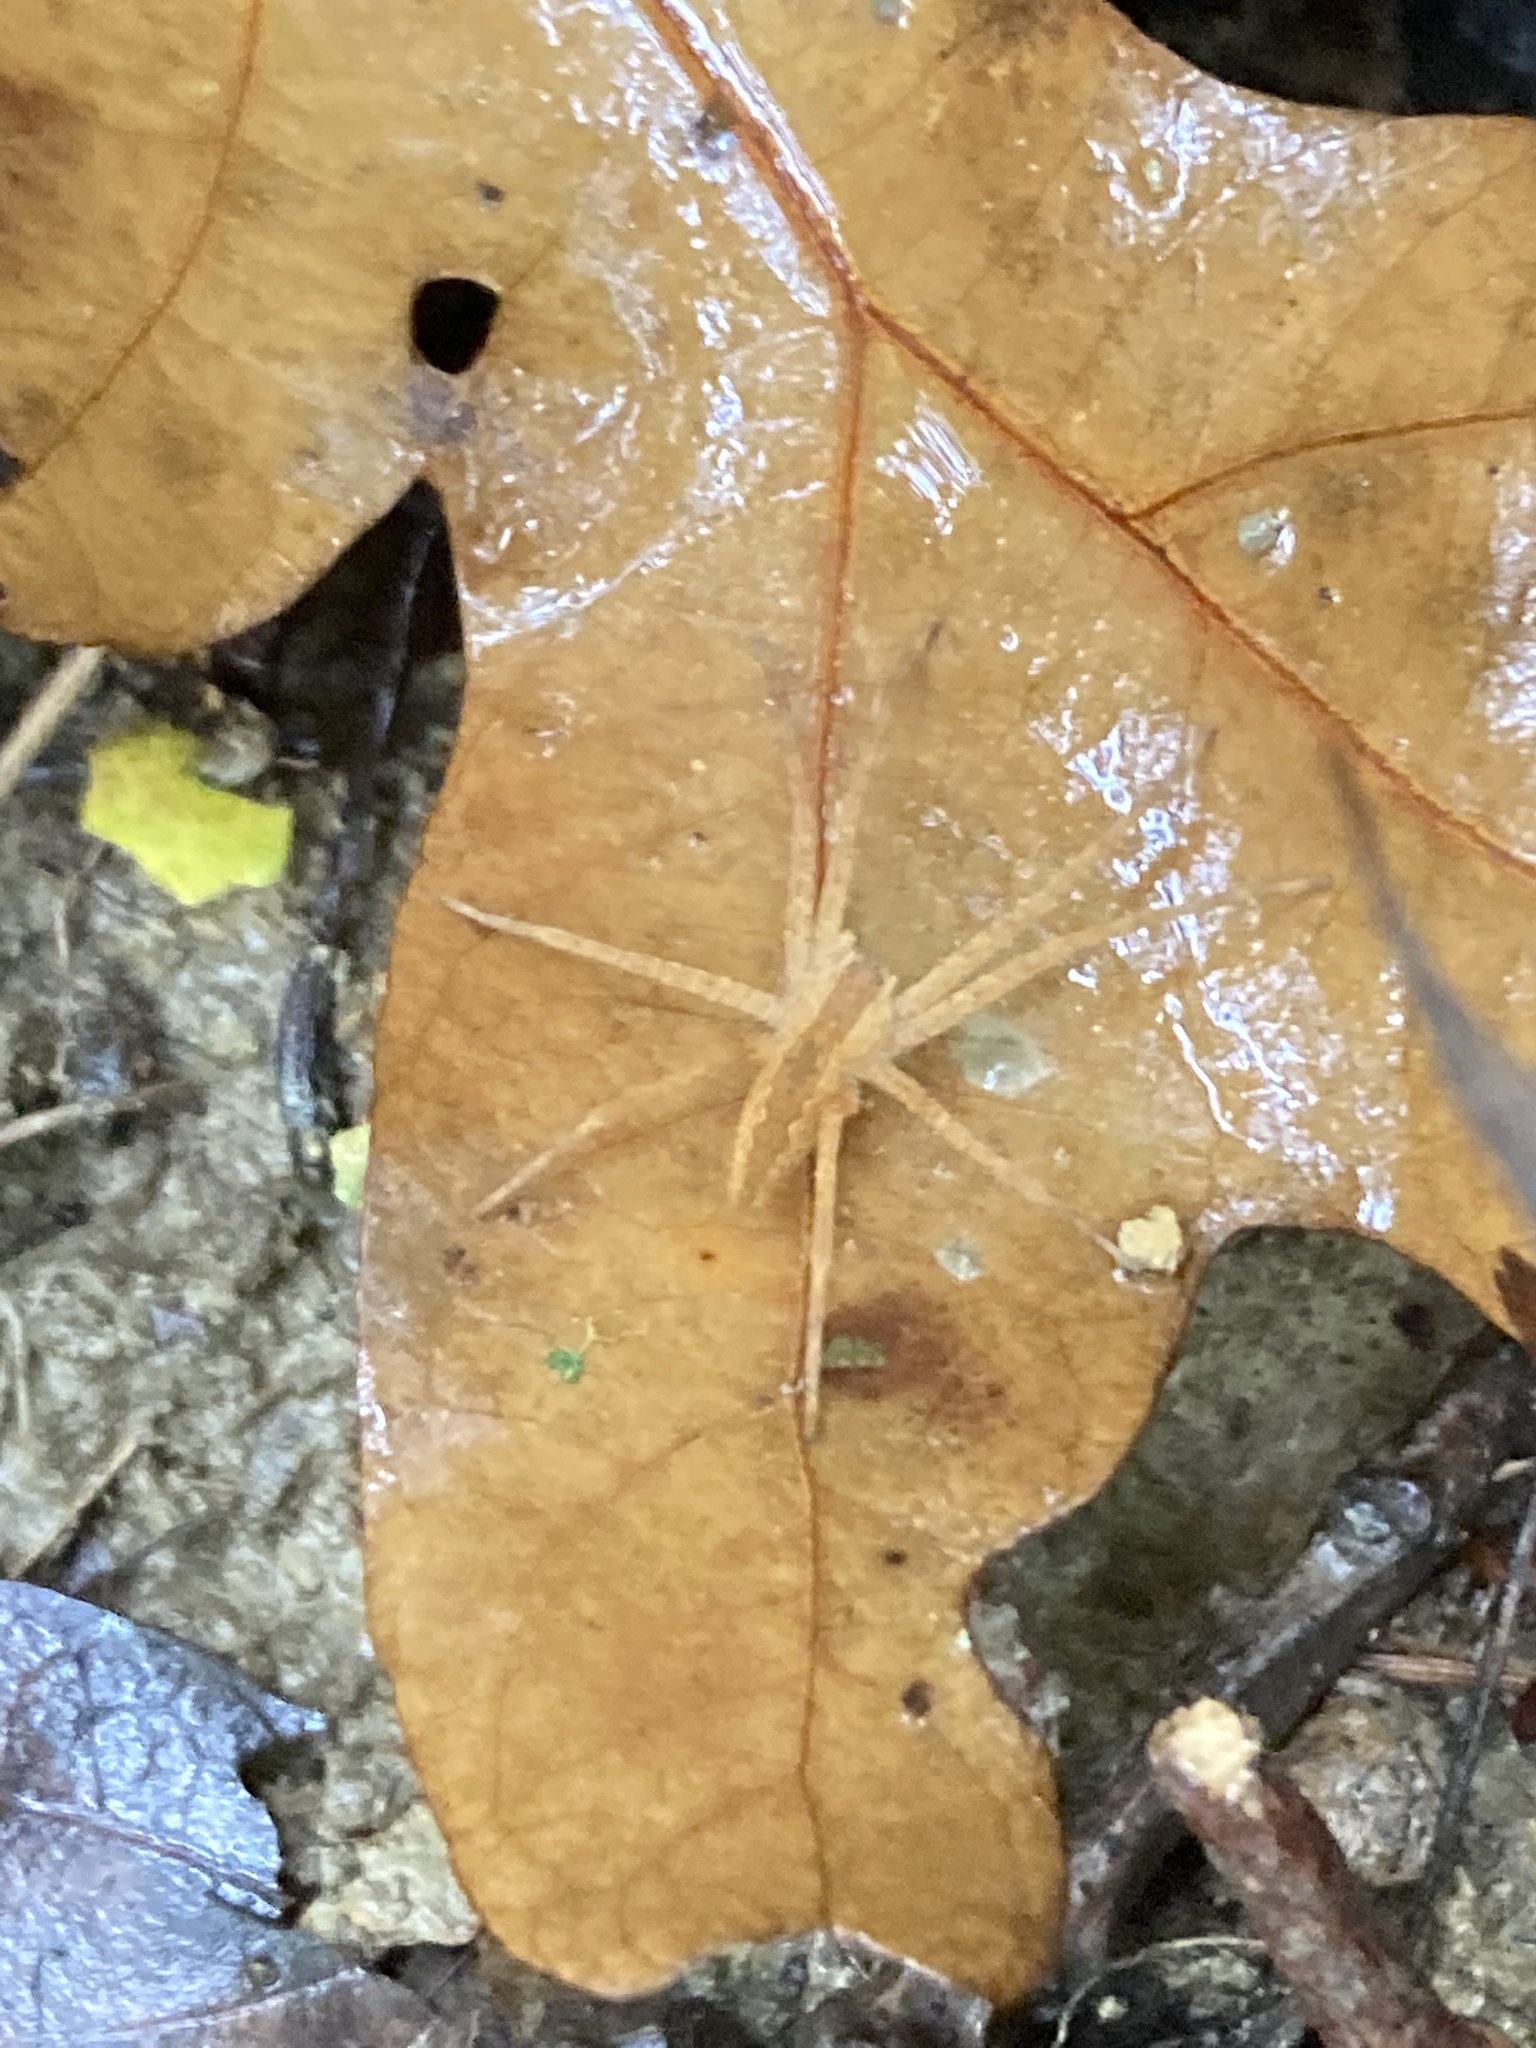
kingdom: Animalia
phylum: Arthropoda
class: Arachnida
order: Araneae
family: Pisauridae
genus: Pisaurina
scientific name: Pisaurina mira
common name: American nursery web spider
